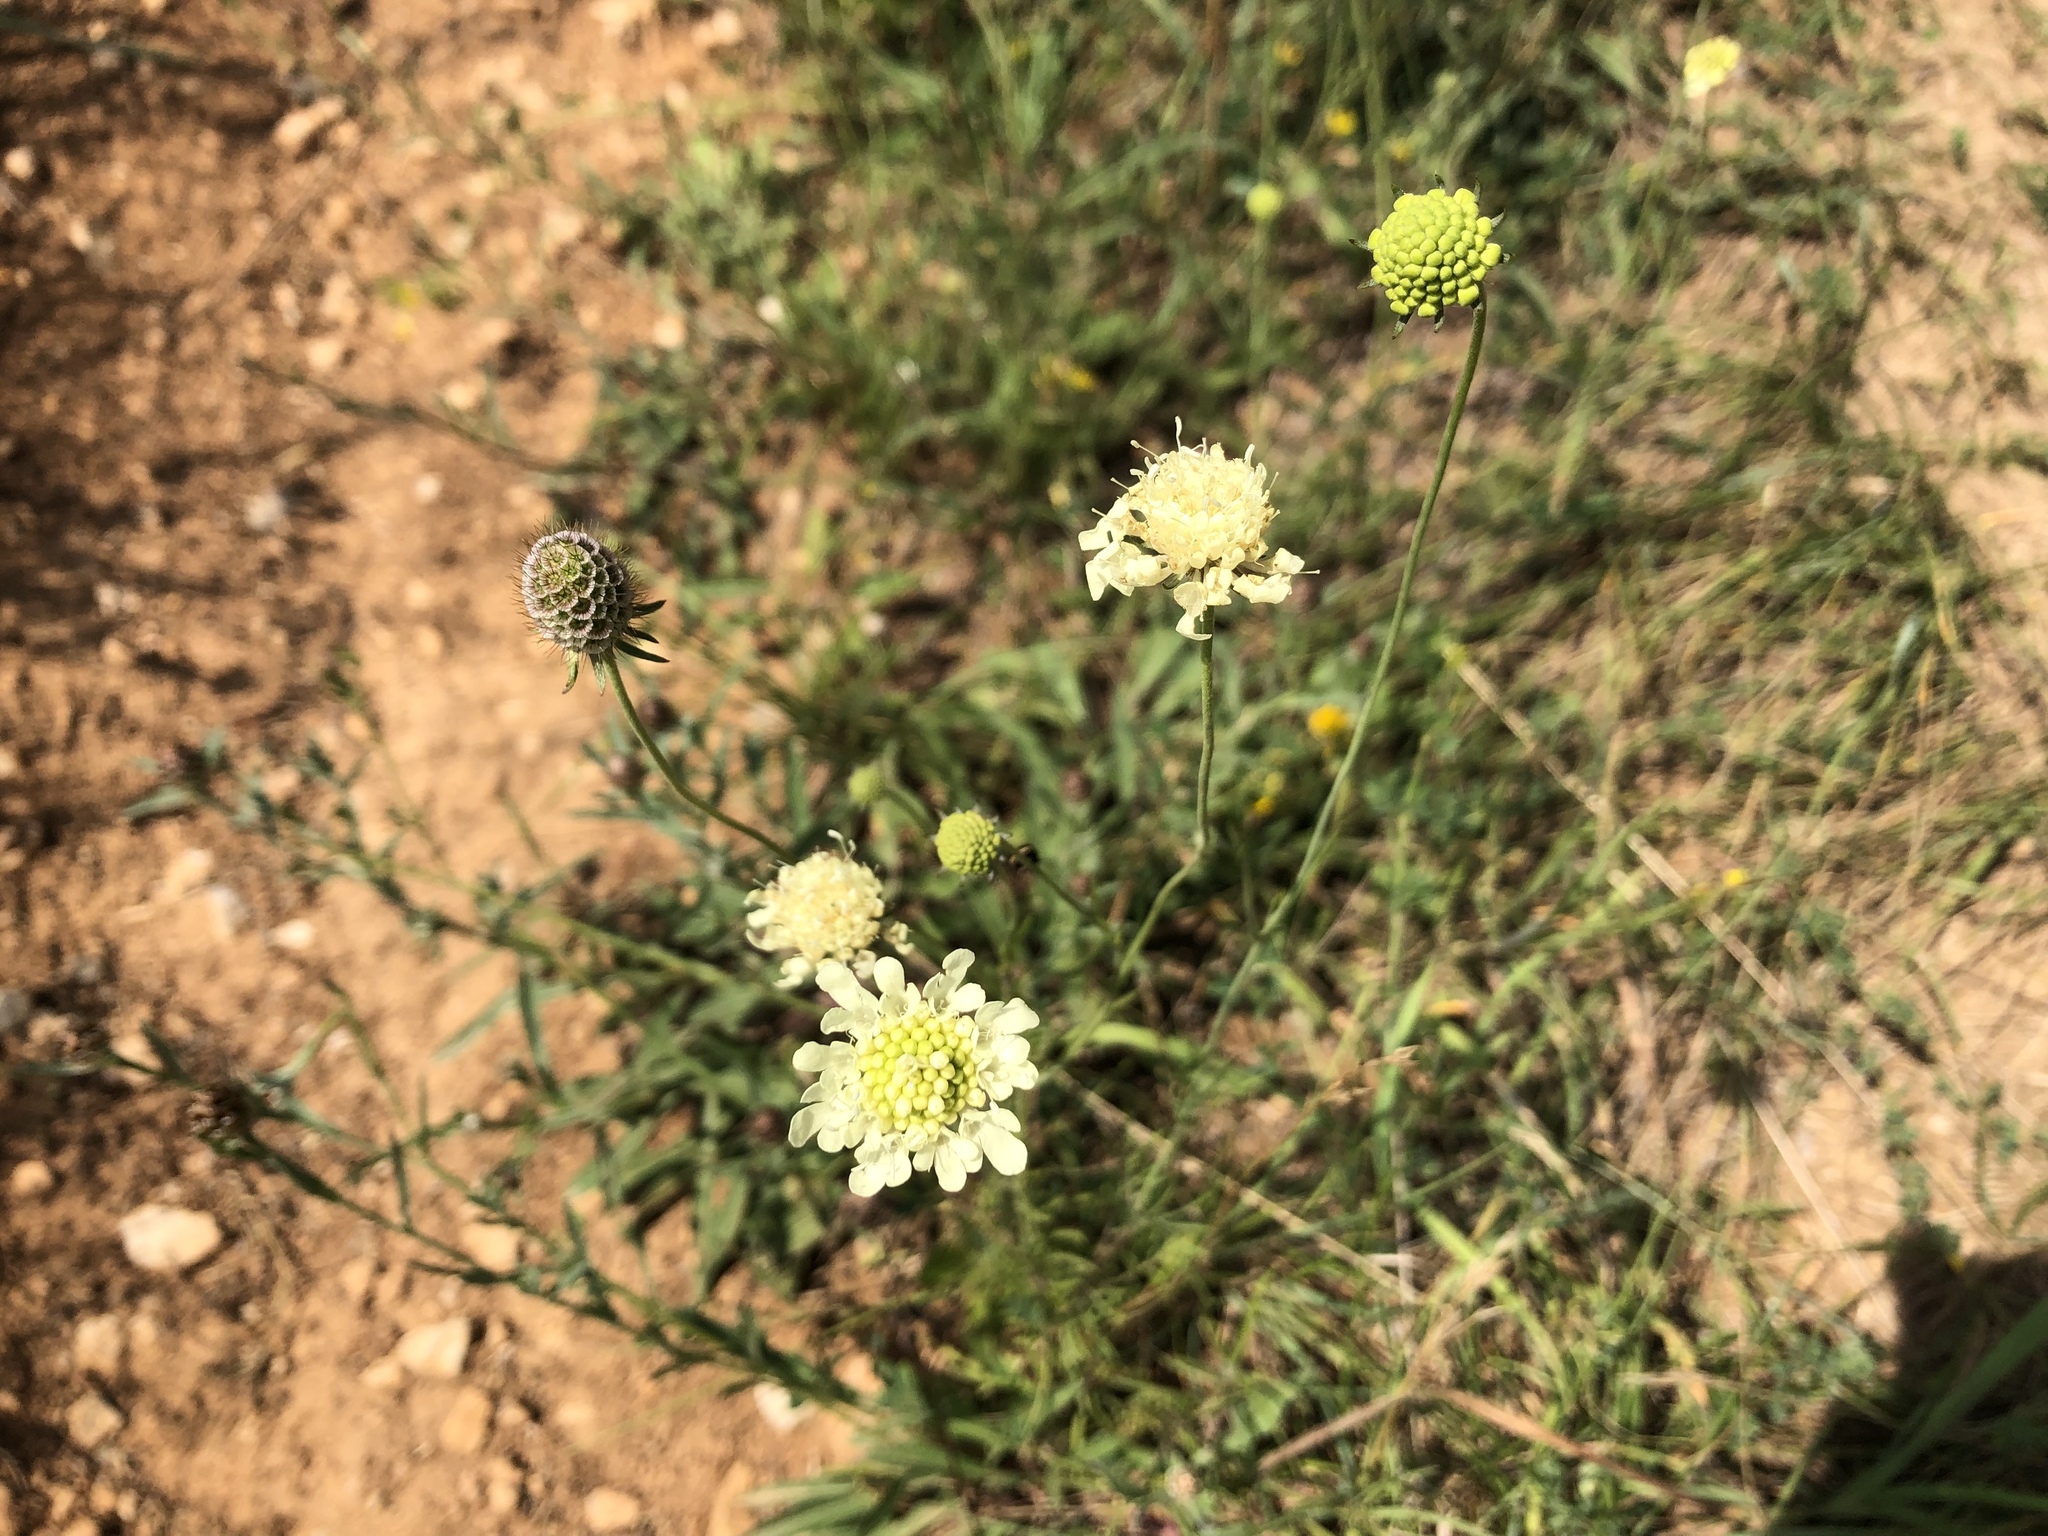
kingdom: Plantae
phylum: Tracheophyta
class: Magnoliopsida
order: Dipsacales
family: Caprifoliaceae
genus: Scabiosa
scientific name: Scabiosa ochroleuca
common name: Cream pincushions
